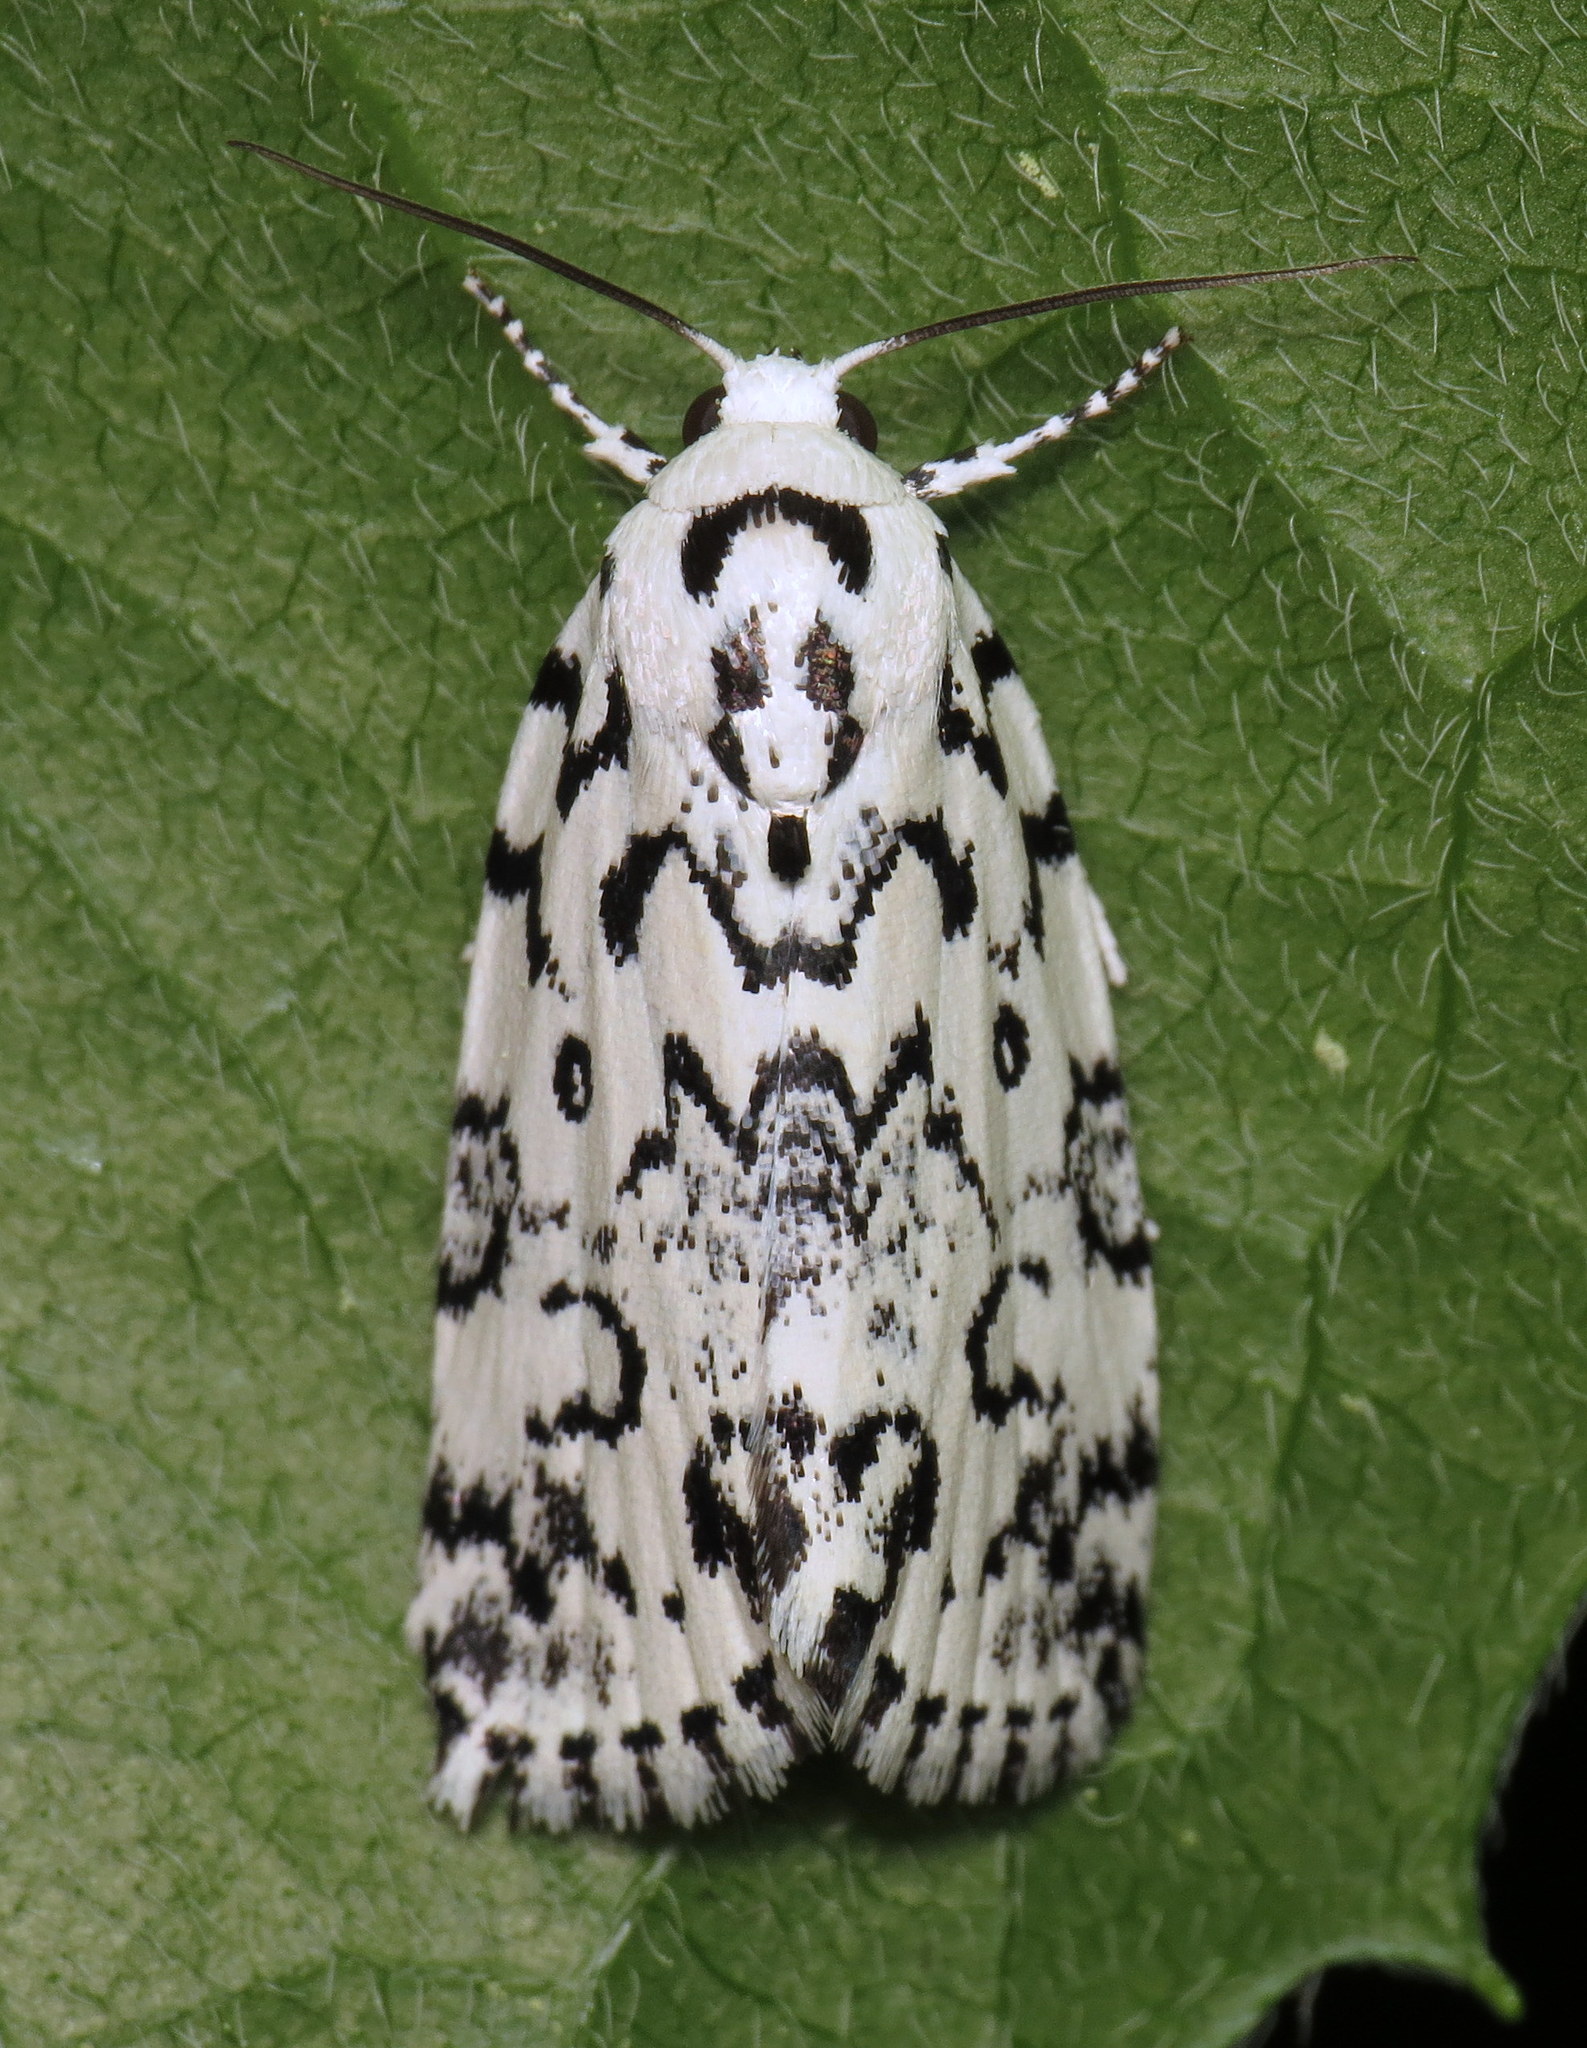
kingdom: Animalia
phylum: Arthropoda
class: Insecta
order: Lepidoptera
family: Noctuidae
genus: Polygrammate
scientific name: Polygrammate hebraeicum
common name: Hebrew moth
